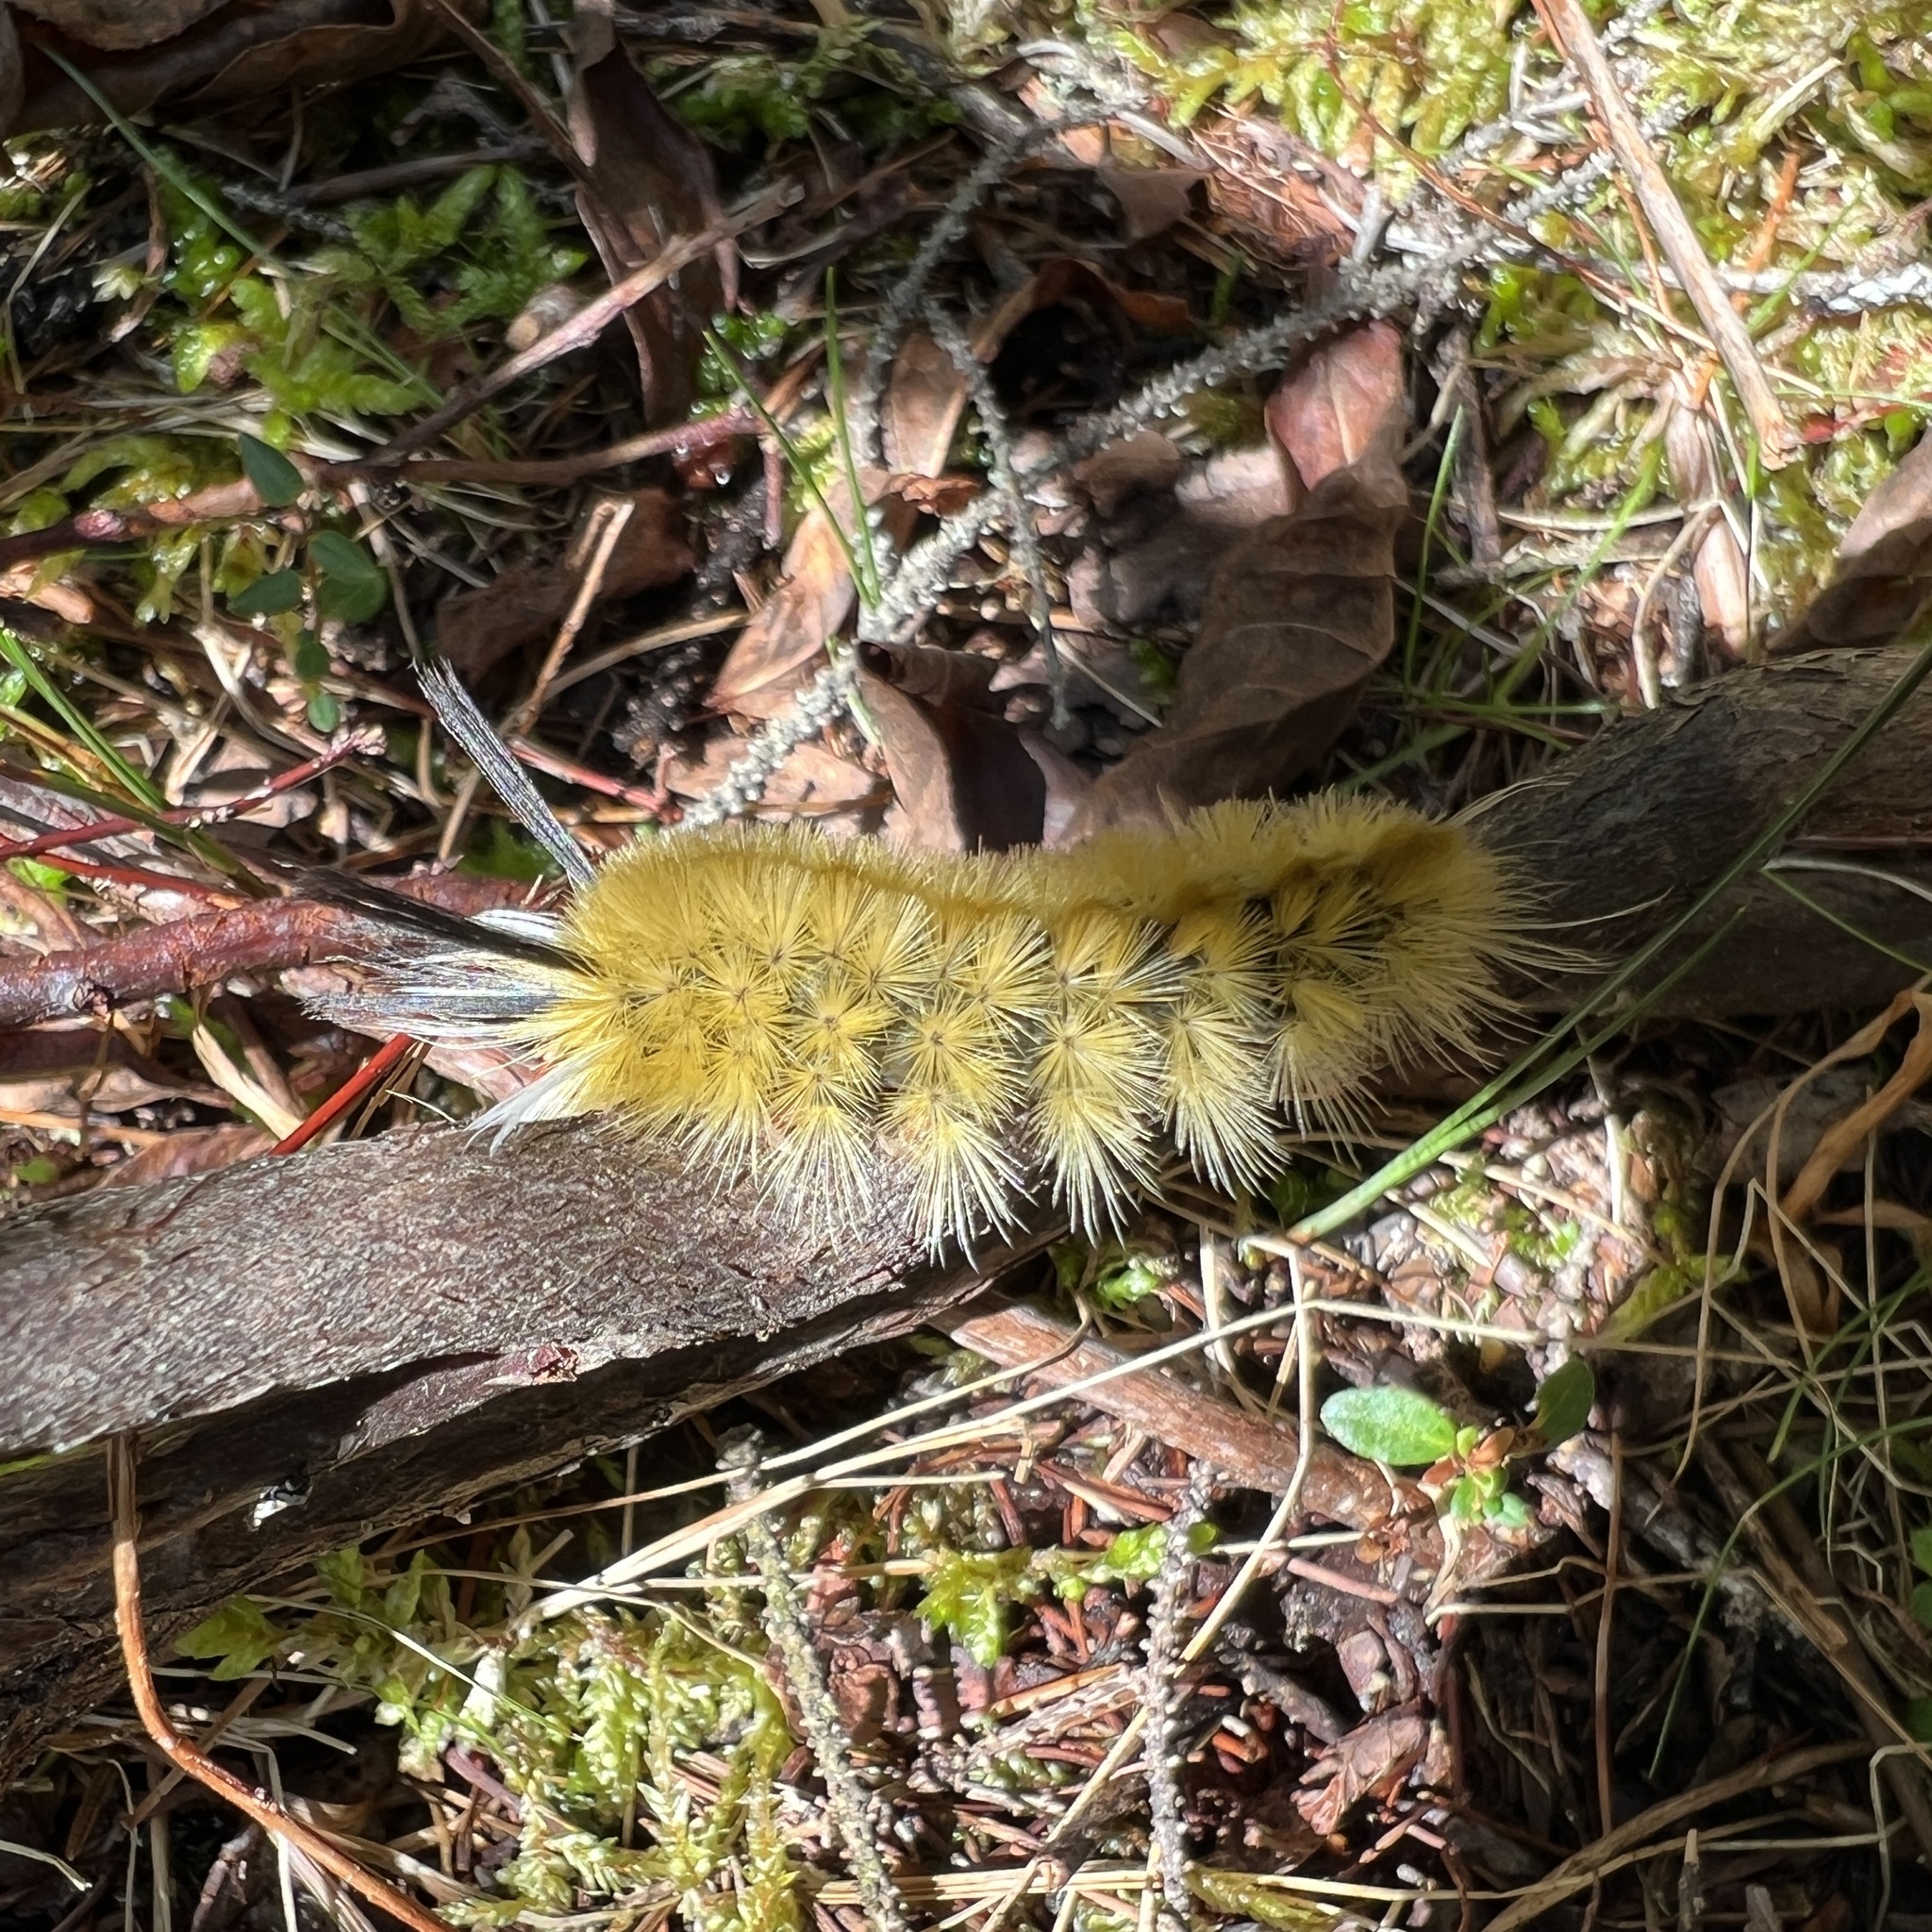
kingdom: Animalia
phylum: Arthropoda
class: Insecta
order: Lepidoptera
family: Erebidae
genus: Halysidota
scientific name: Halysidota tessellaris
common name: Banded tussock moth
